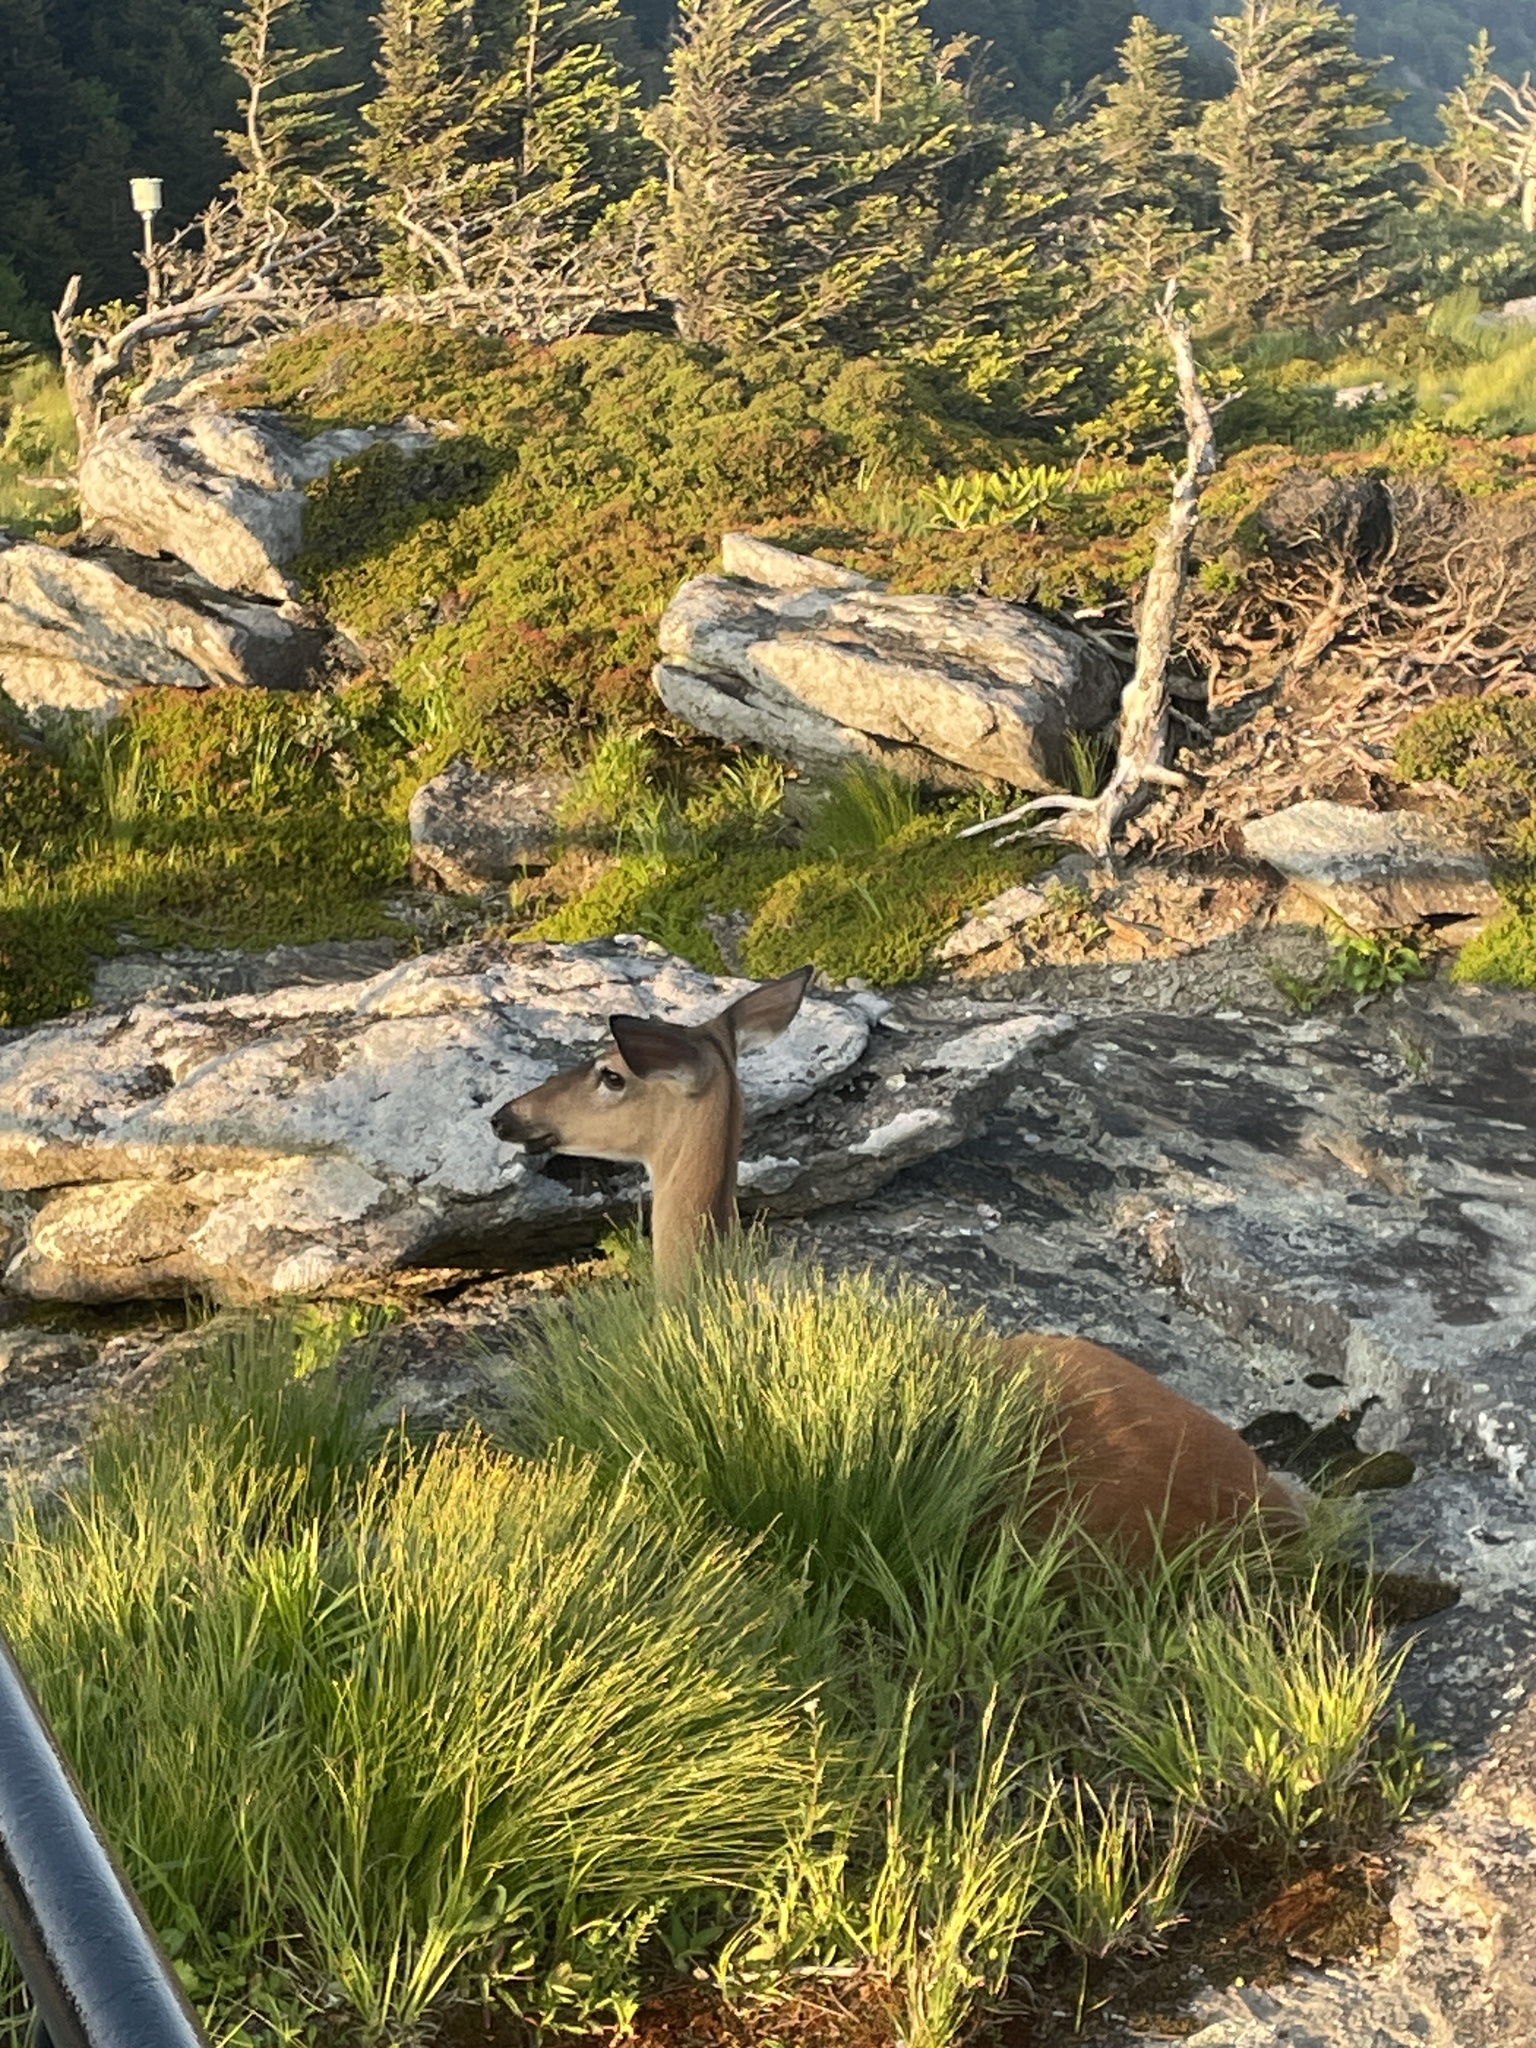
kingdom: Animalia
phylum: Chordata
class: Mammalia
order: Artiodactyla
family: Cervidae
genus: Odocoileus
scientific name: Odocoileus virginianus
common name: White-tailed deer
